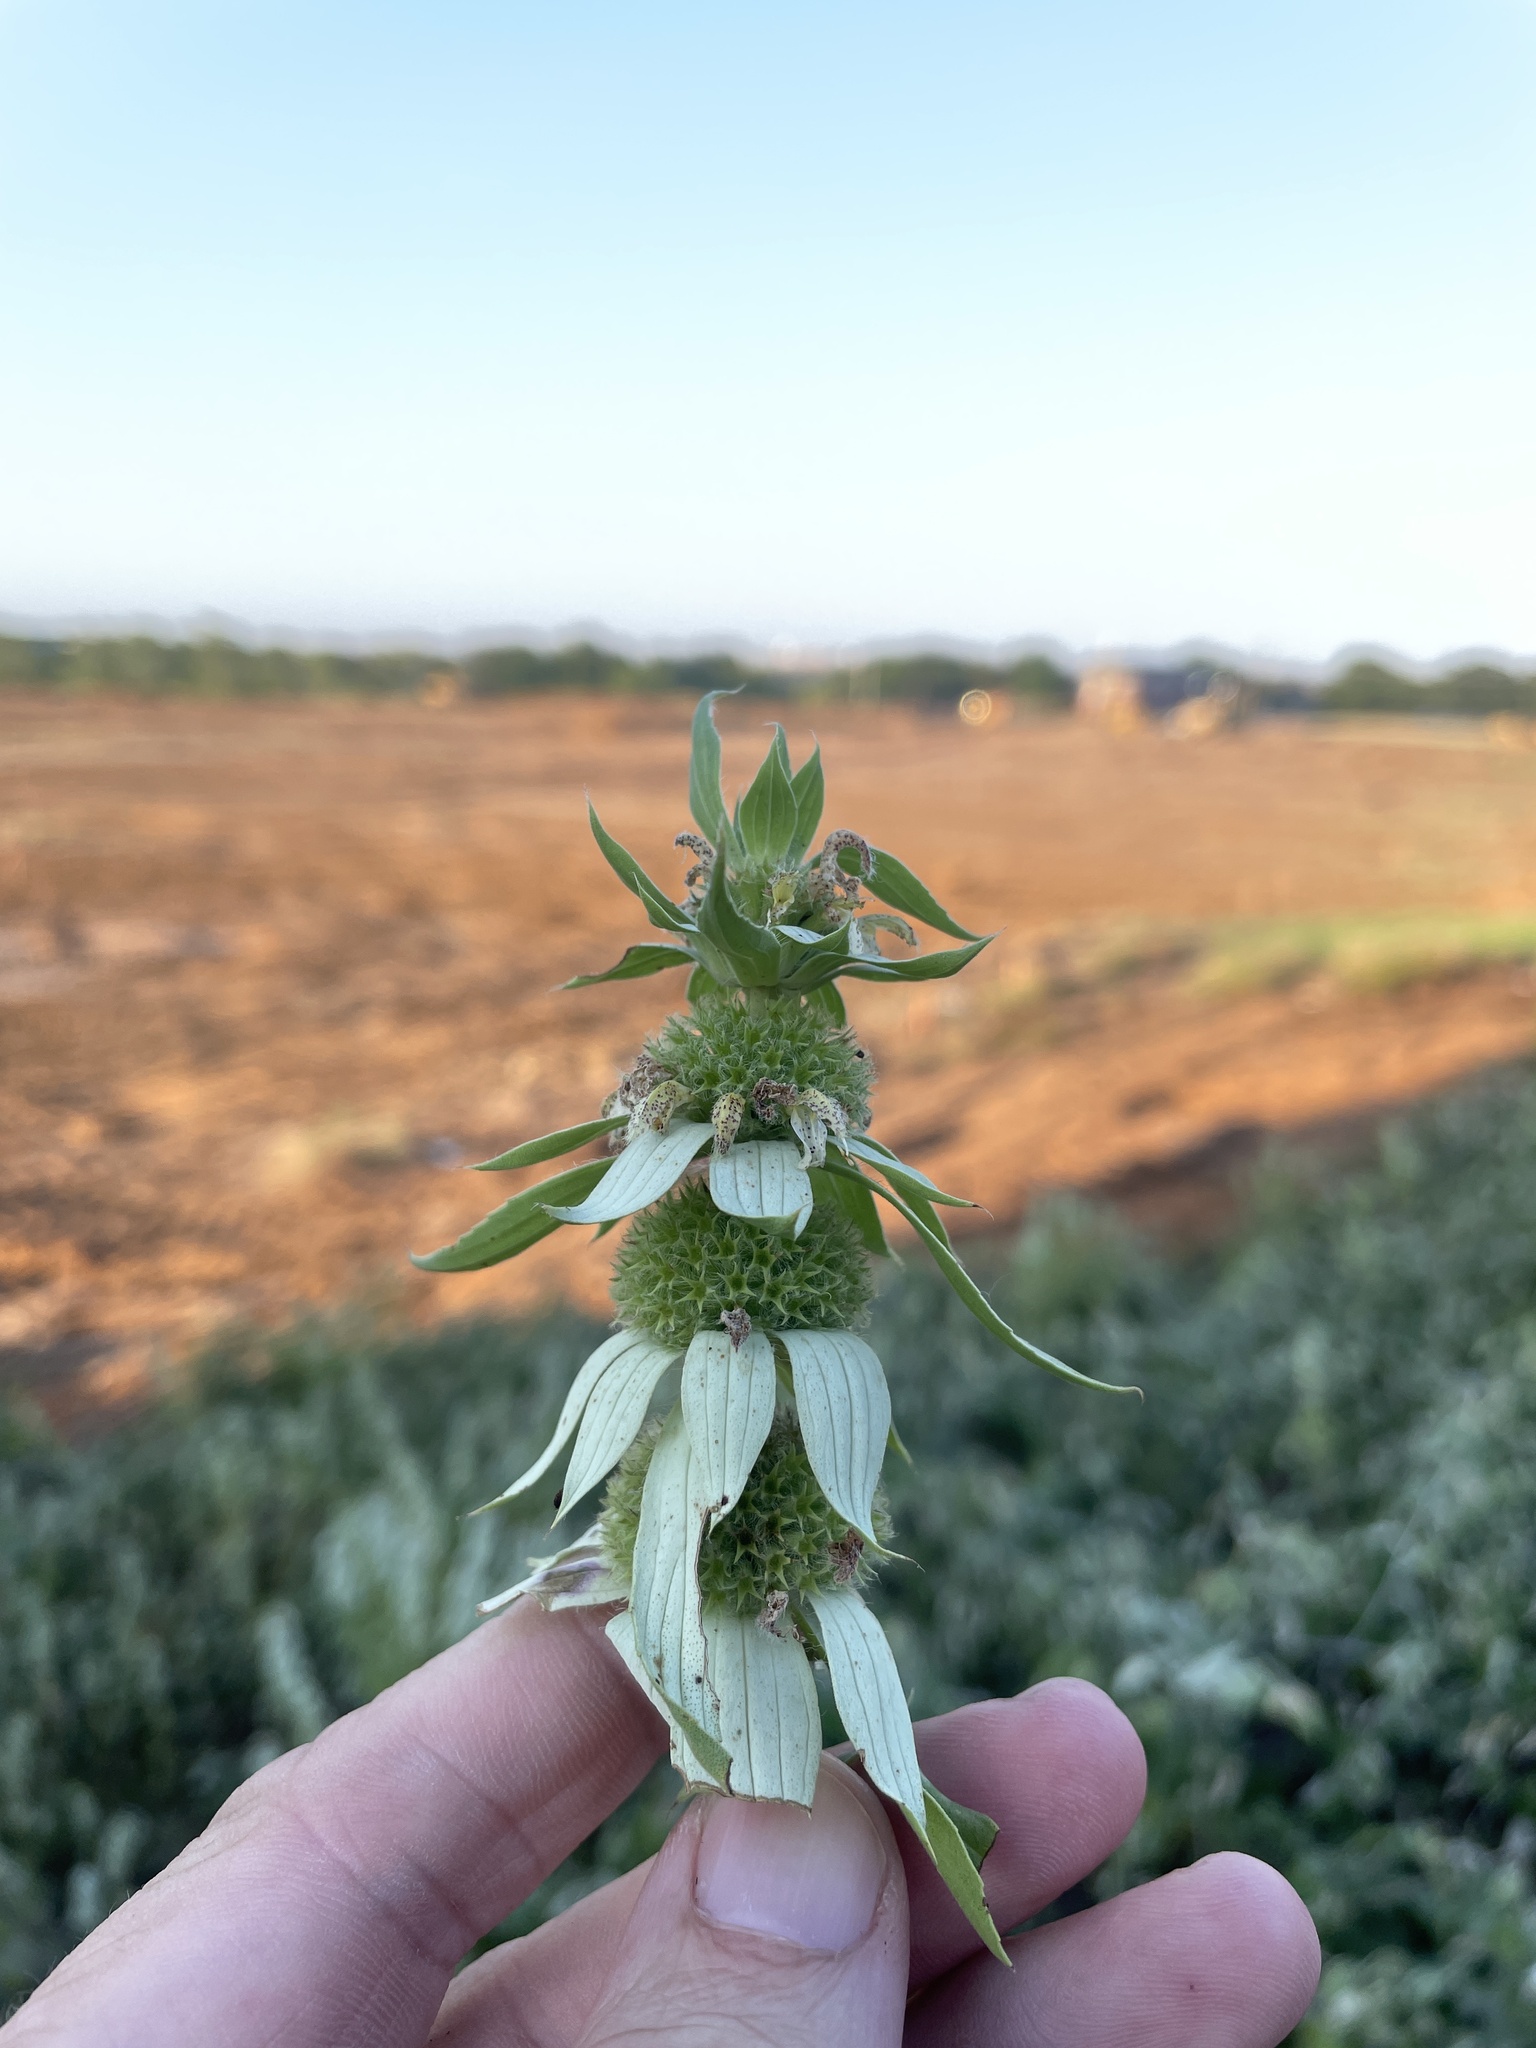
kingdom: Plantae
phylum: Tracheophyta
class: Magnoliopsida
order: Lamiales
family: Lamiaceae
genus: Monarda
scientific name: Monarda punctata
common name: Dotted monarda
